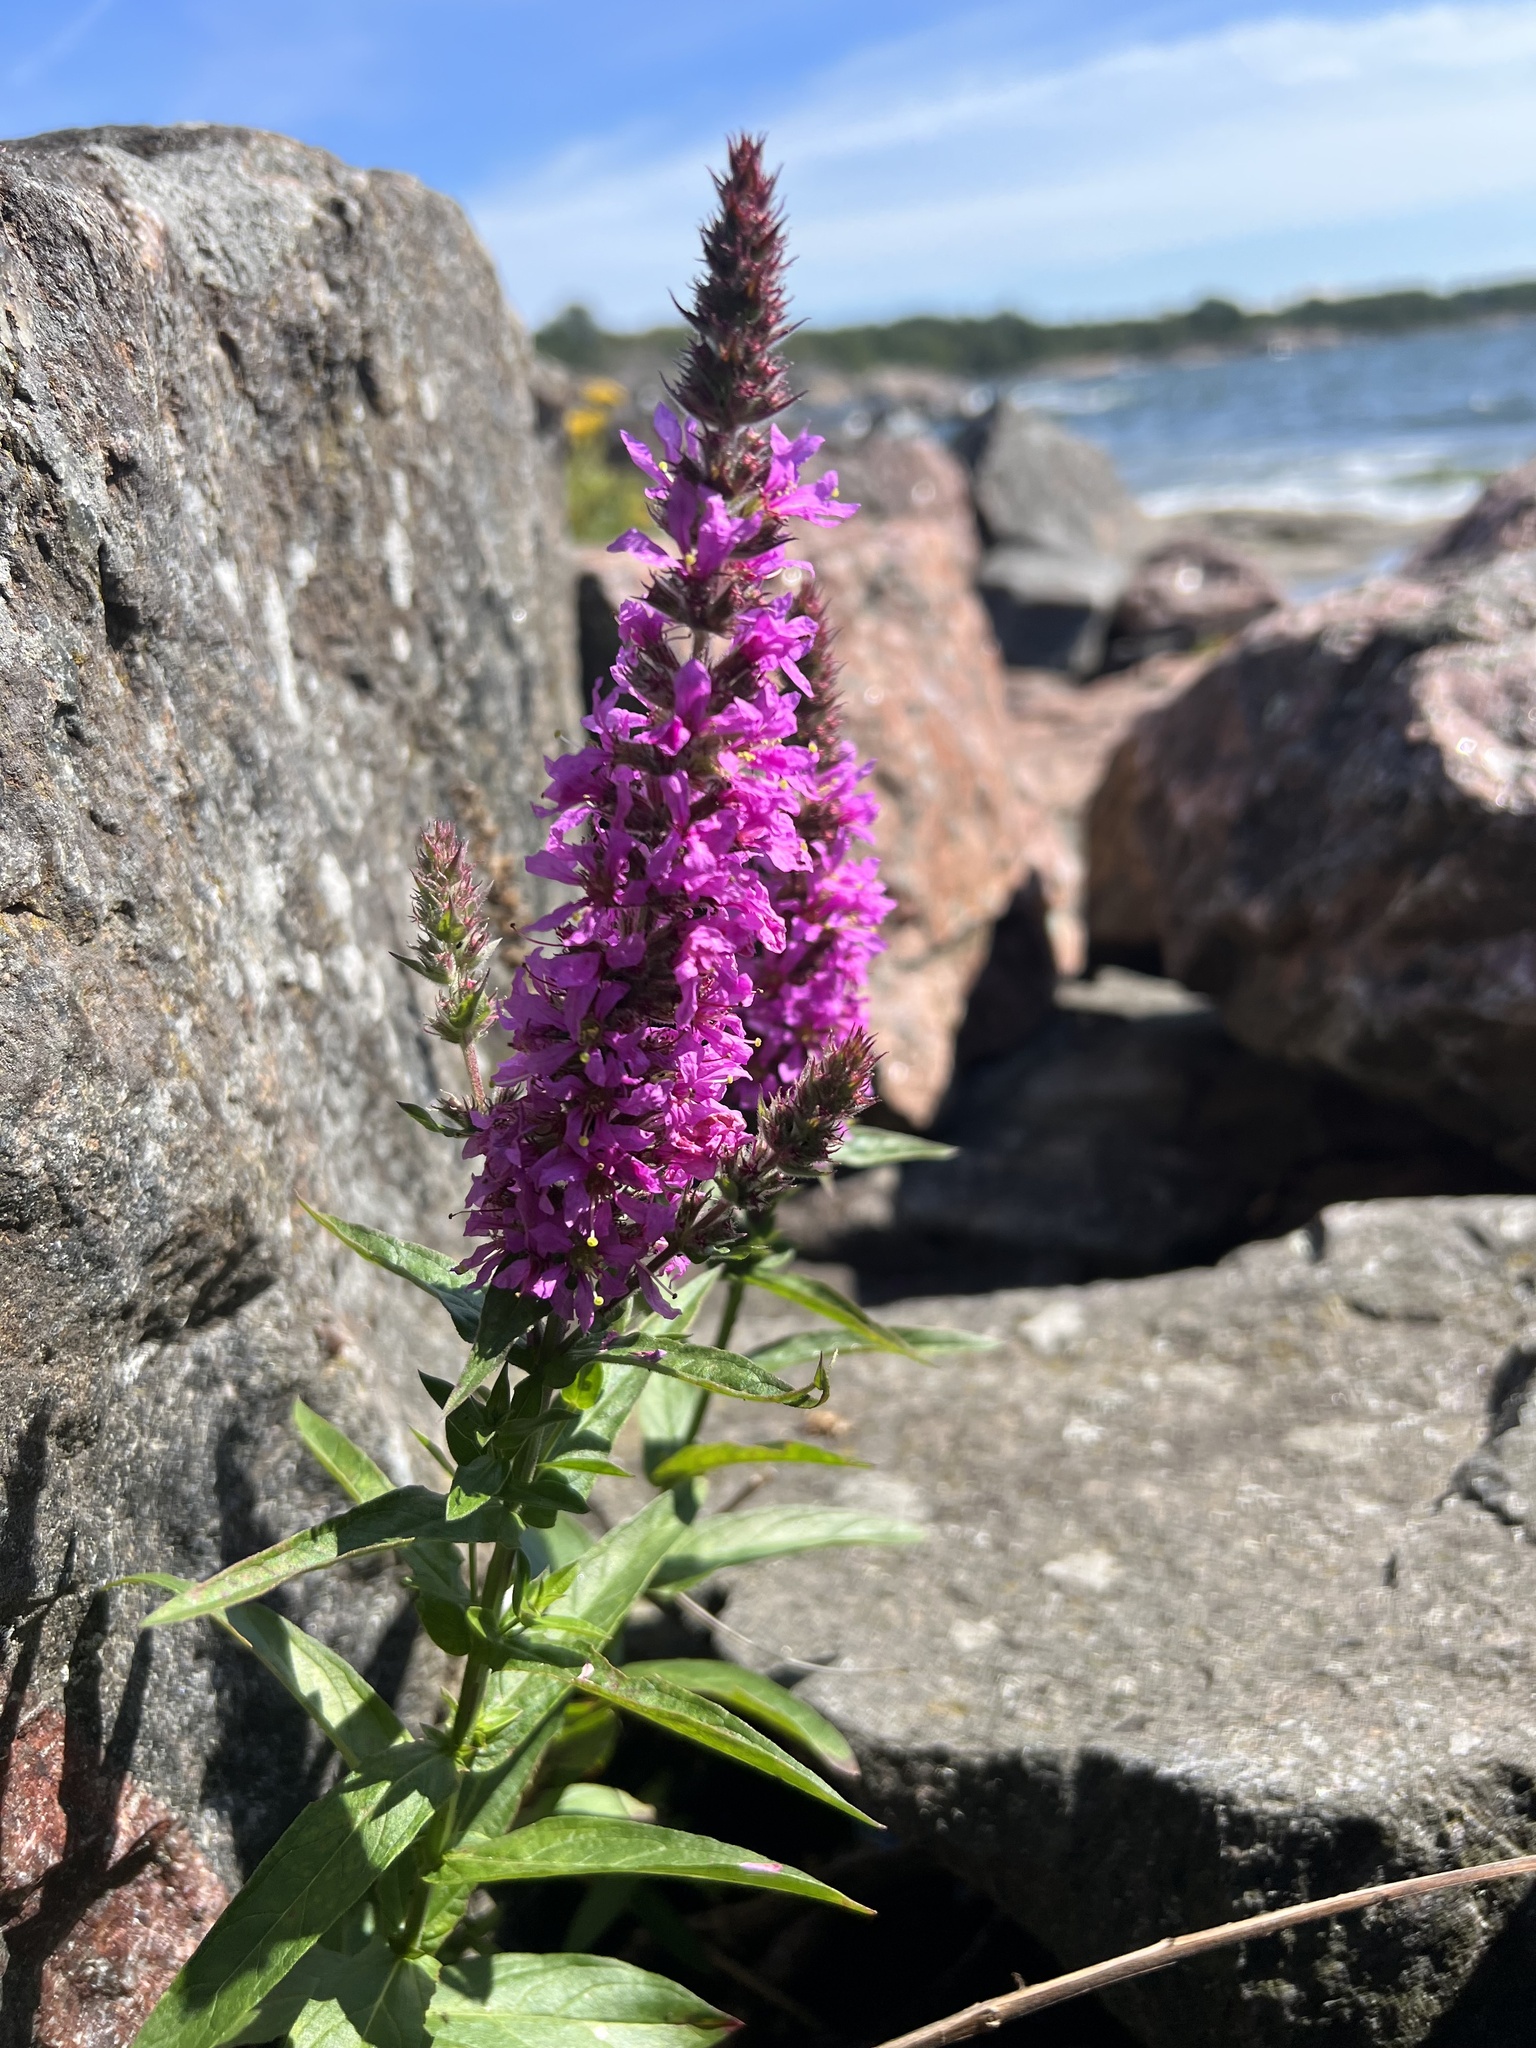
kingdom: Plantae
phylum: Tracheophyta
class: Magnoliopsida
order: Myrtales
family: Lythraceae
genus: Lythrum
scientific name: Lythrum salicaria
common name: Purple loosestrife
